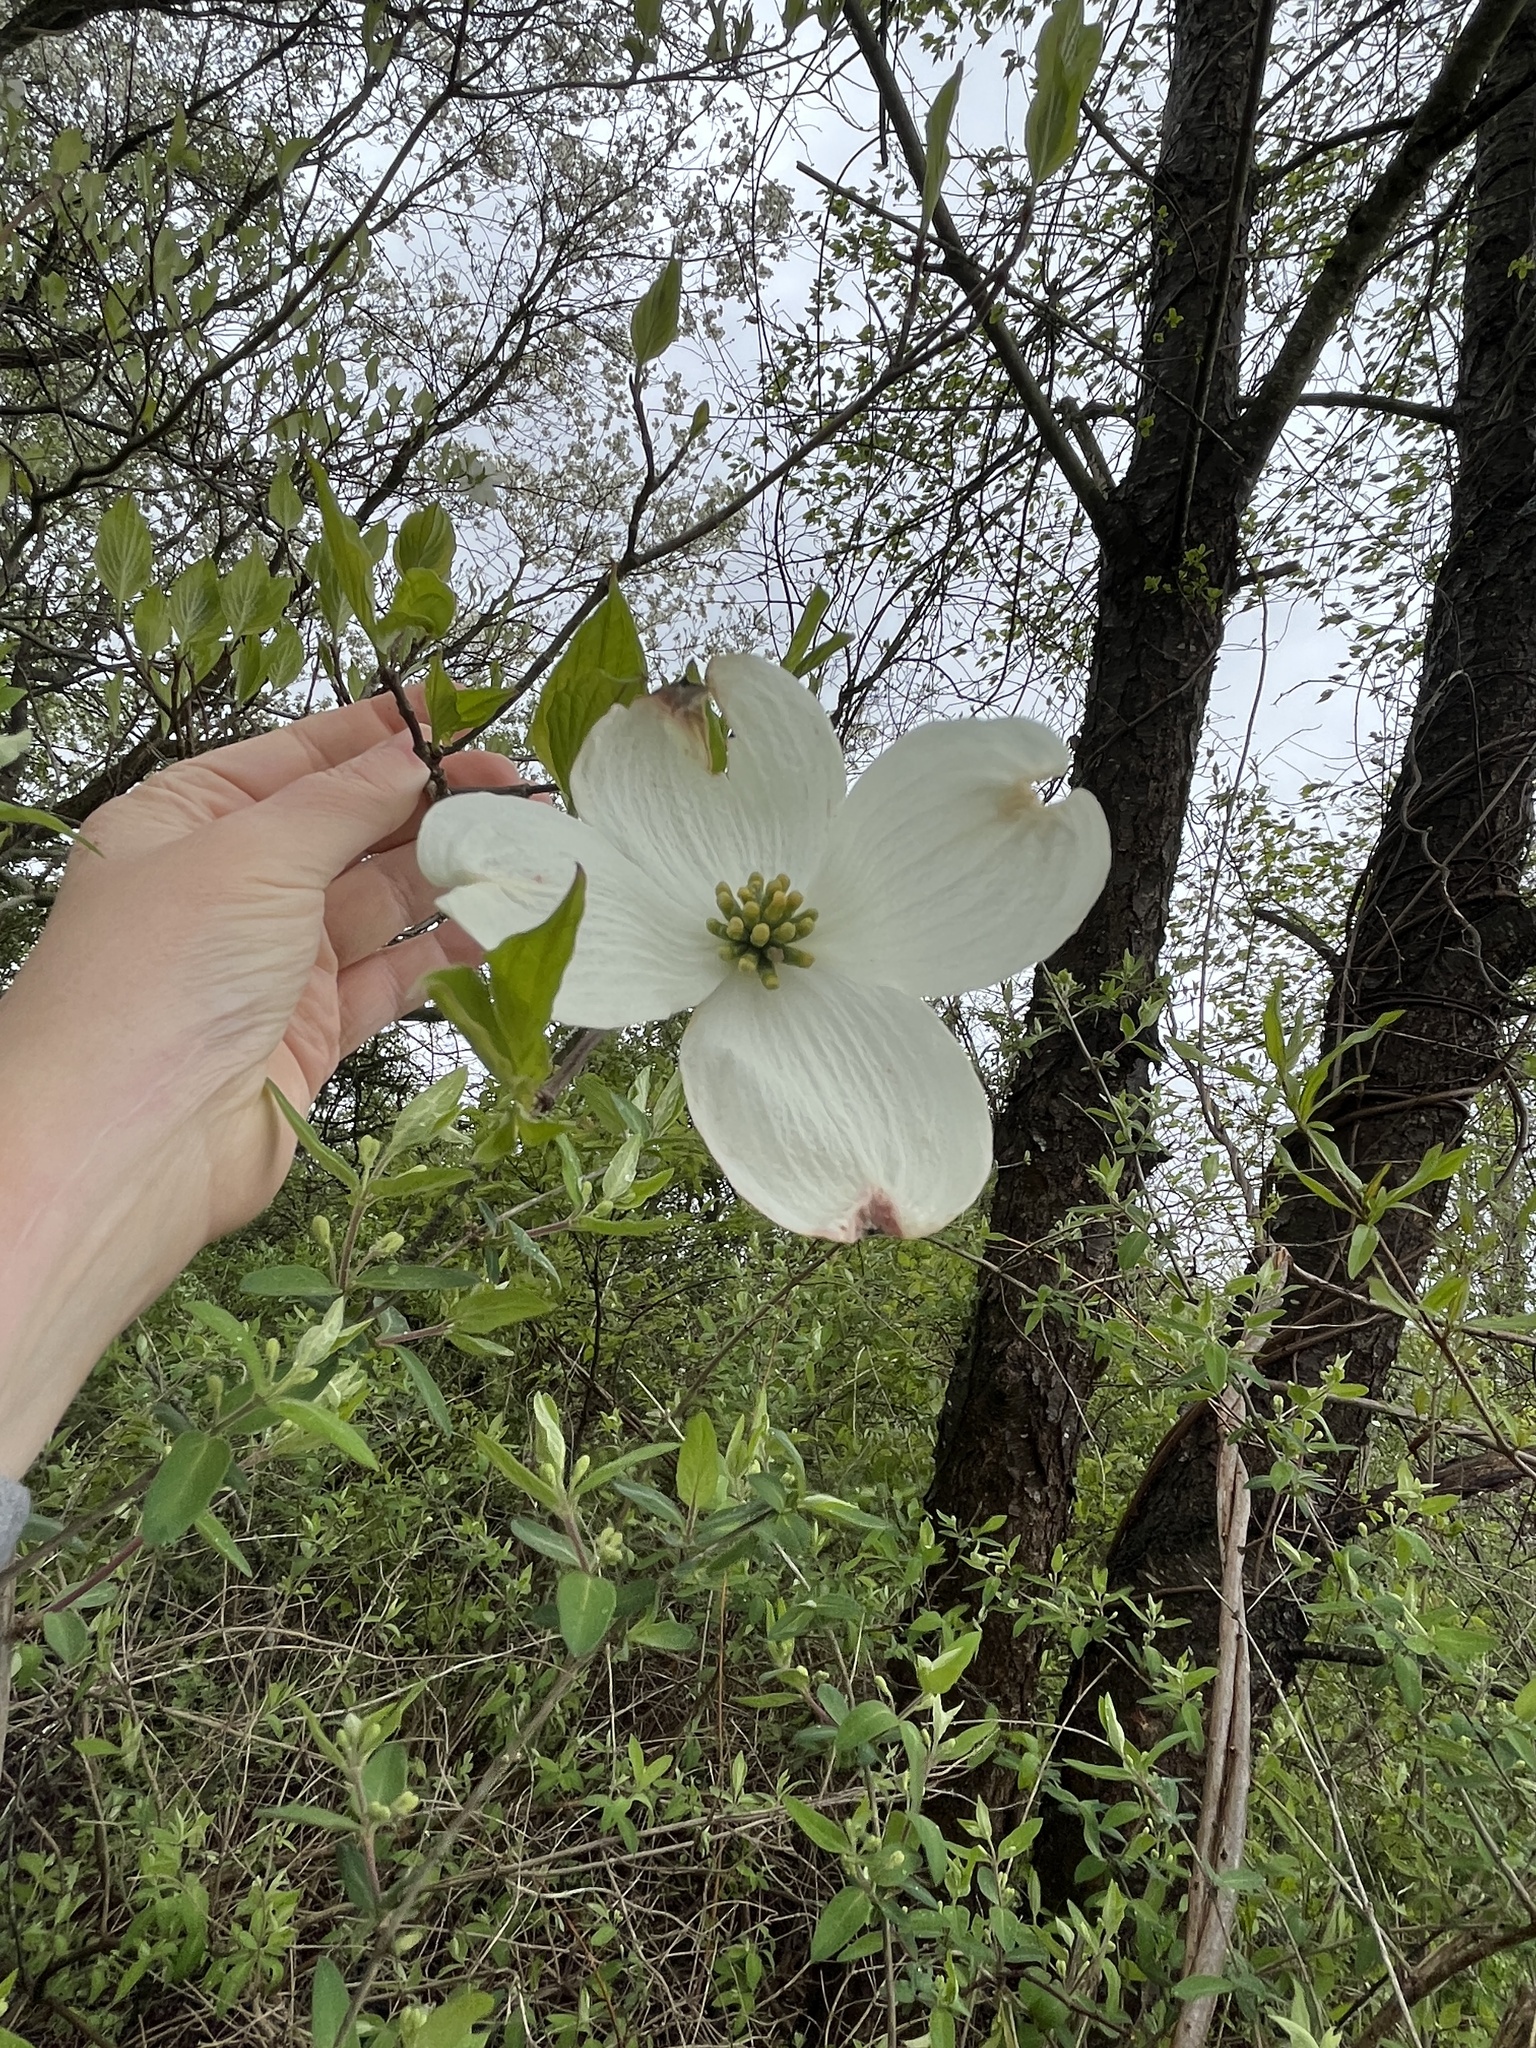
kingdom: Plantae
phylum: Tracheophyta
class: Magnoliopsida
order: Cornales
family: Cornaceae
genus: Cornus
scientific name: Cornus florida
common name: Flowering dogwood
